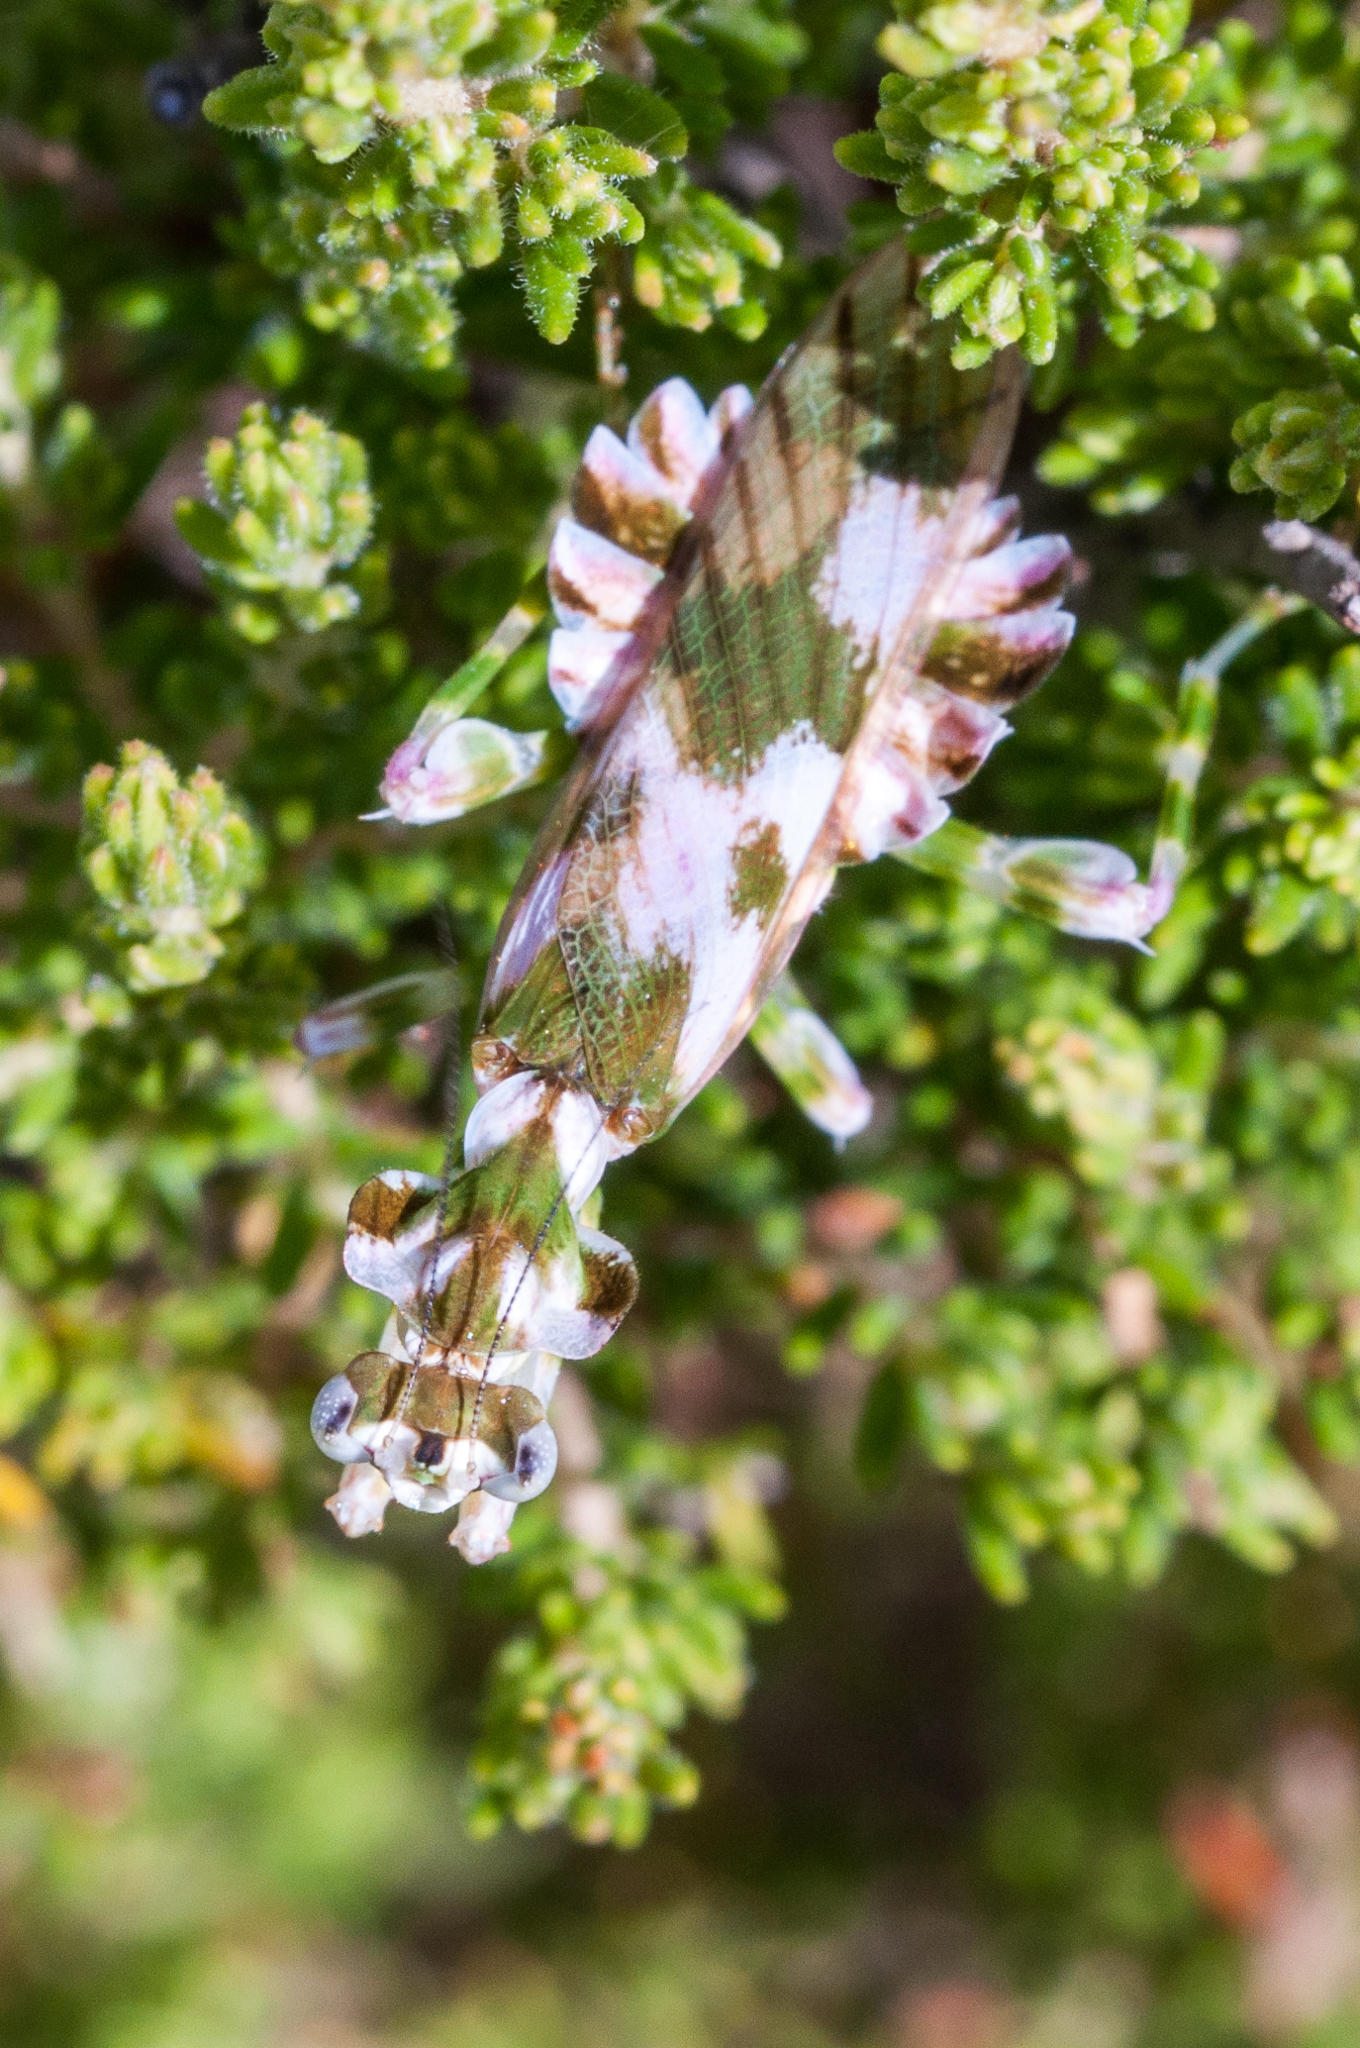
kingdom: Animalia
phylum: Arthropoda
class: Insecta
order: Mantodea
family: Galinthiadidae
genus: Harpagomantis
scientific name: Harpagomantis tricolor
